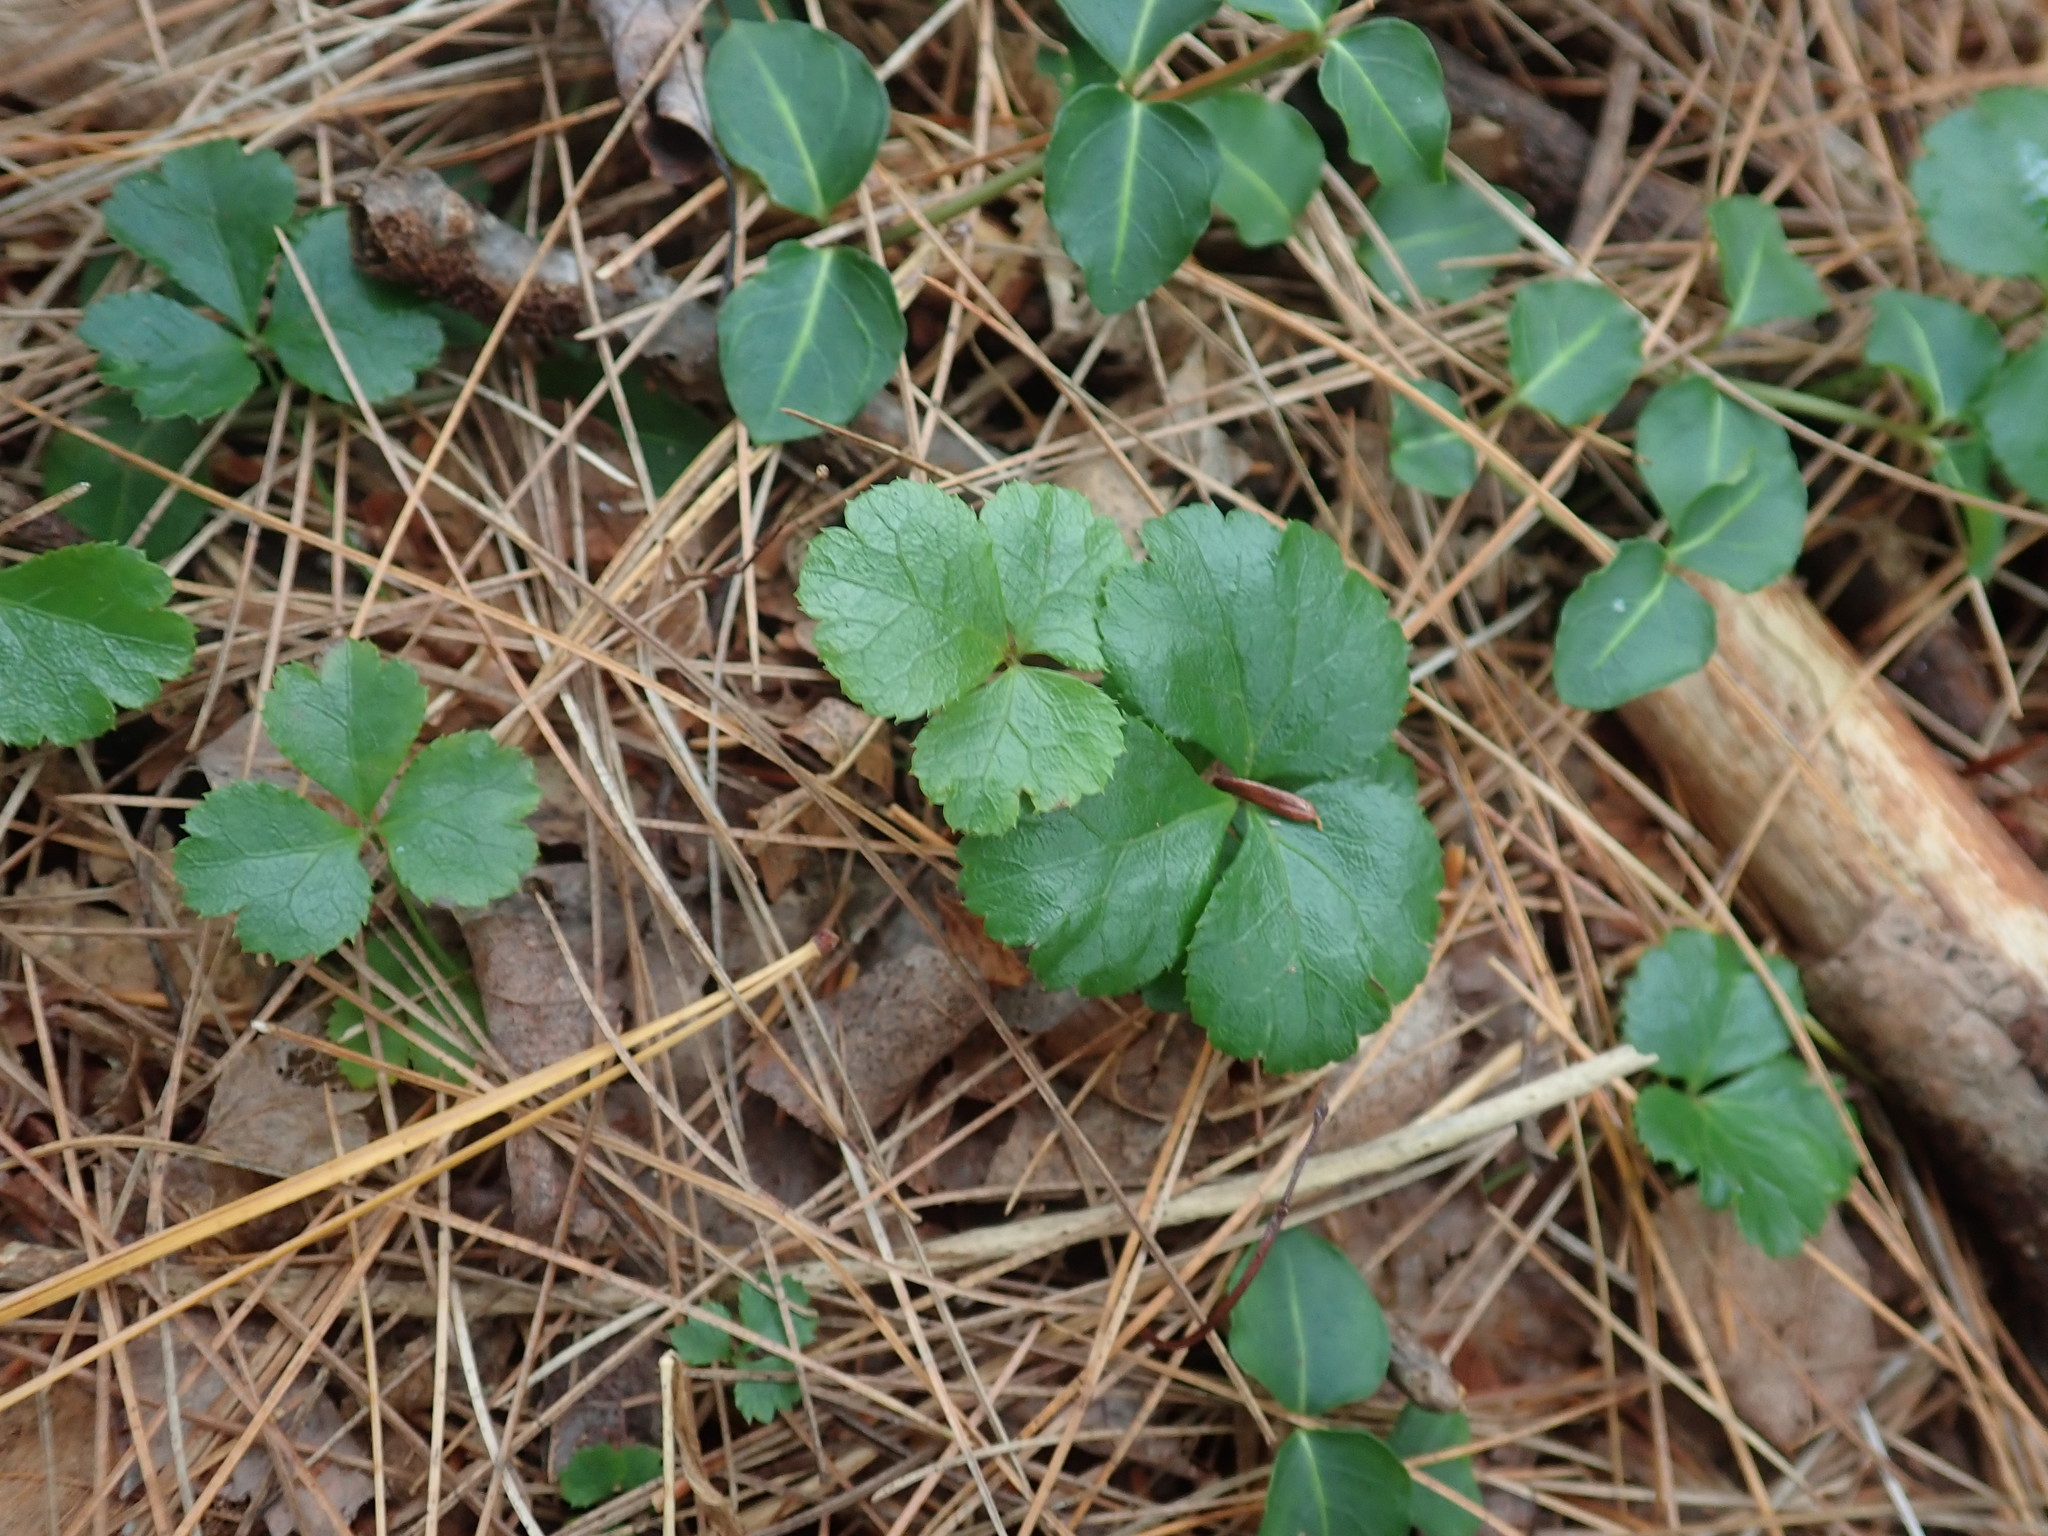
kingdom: Plantae
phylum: Tracheophyta
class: Magnoliopsida
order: Ranunculales
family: Ranunculaceae
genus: Coptis
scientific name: Coptis trifolia
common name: Canker-root
